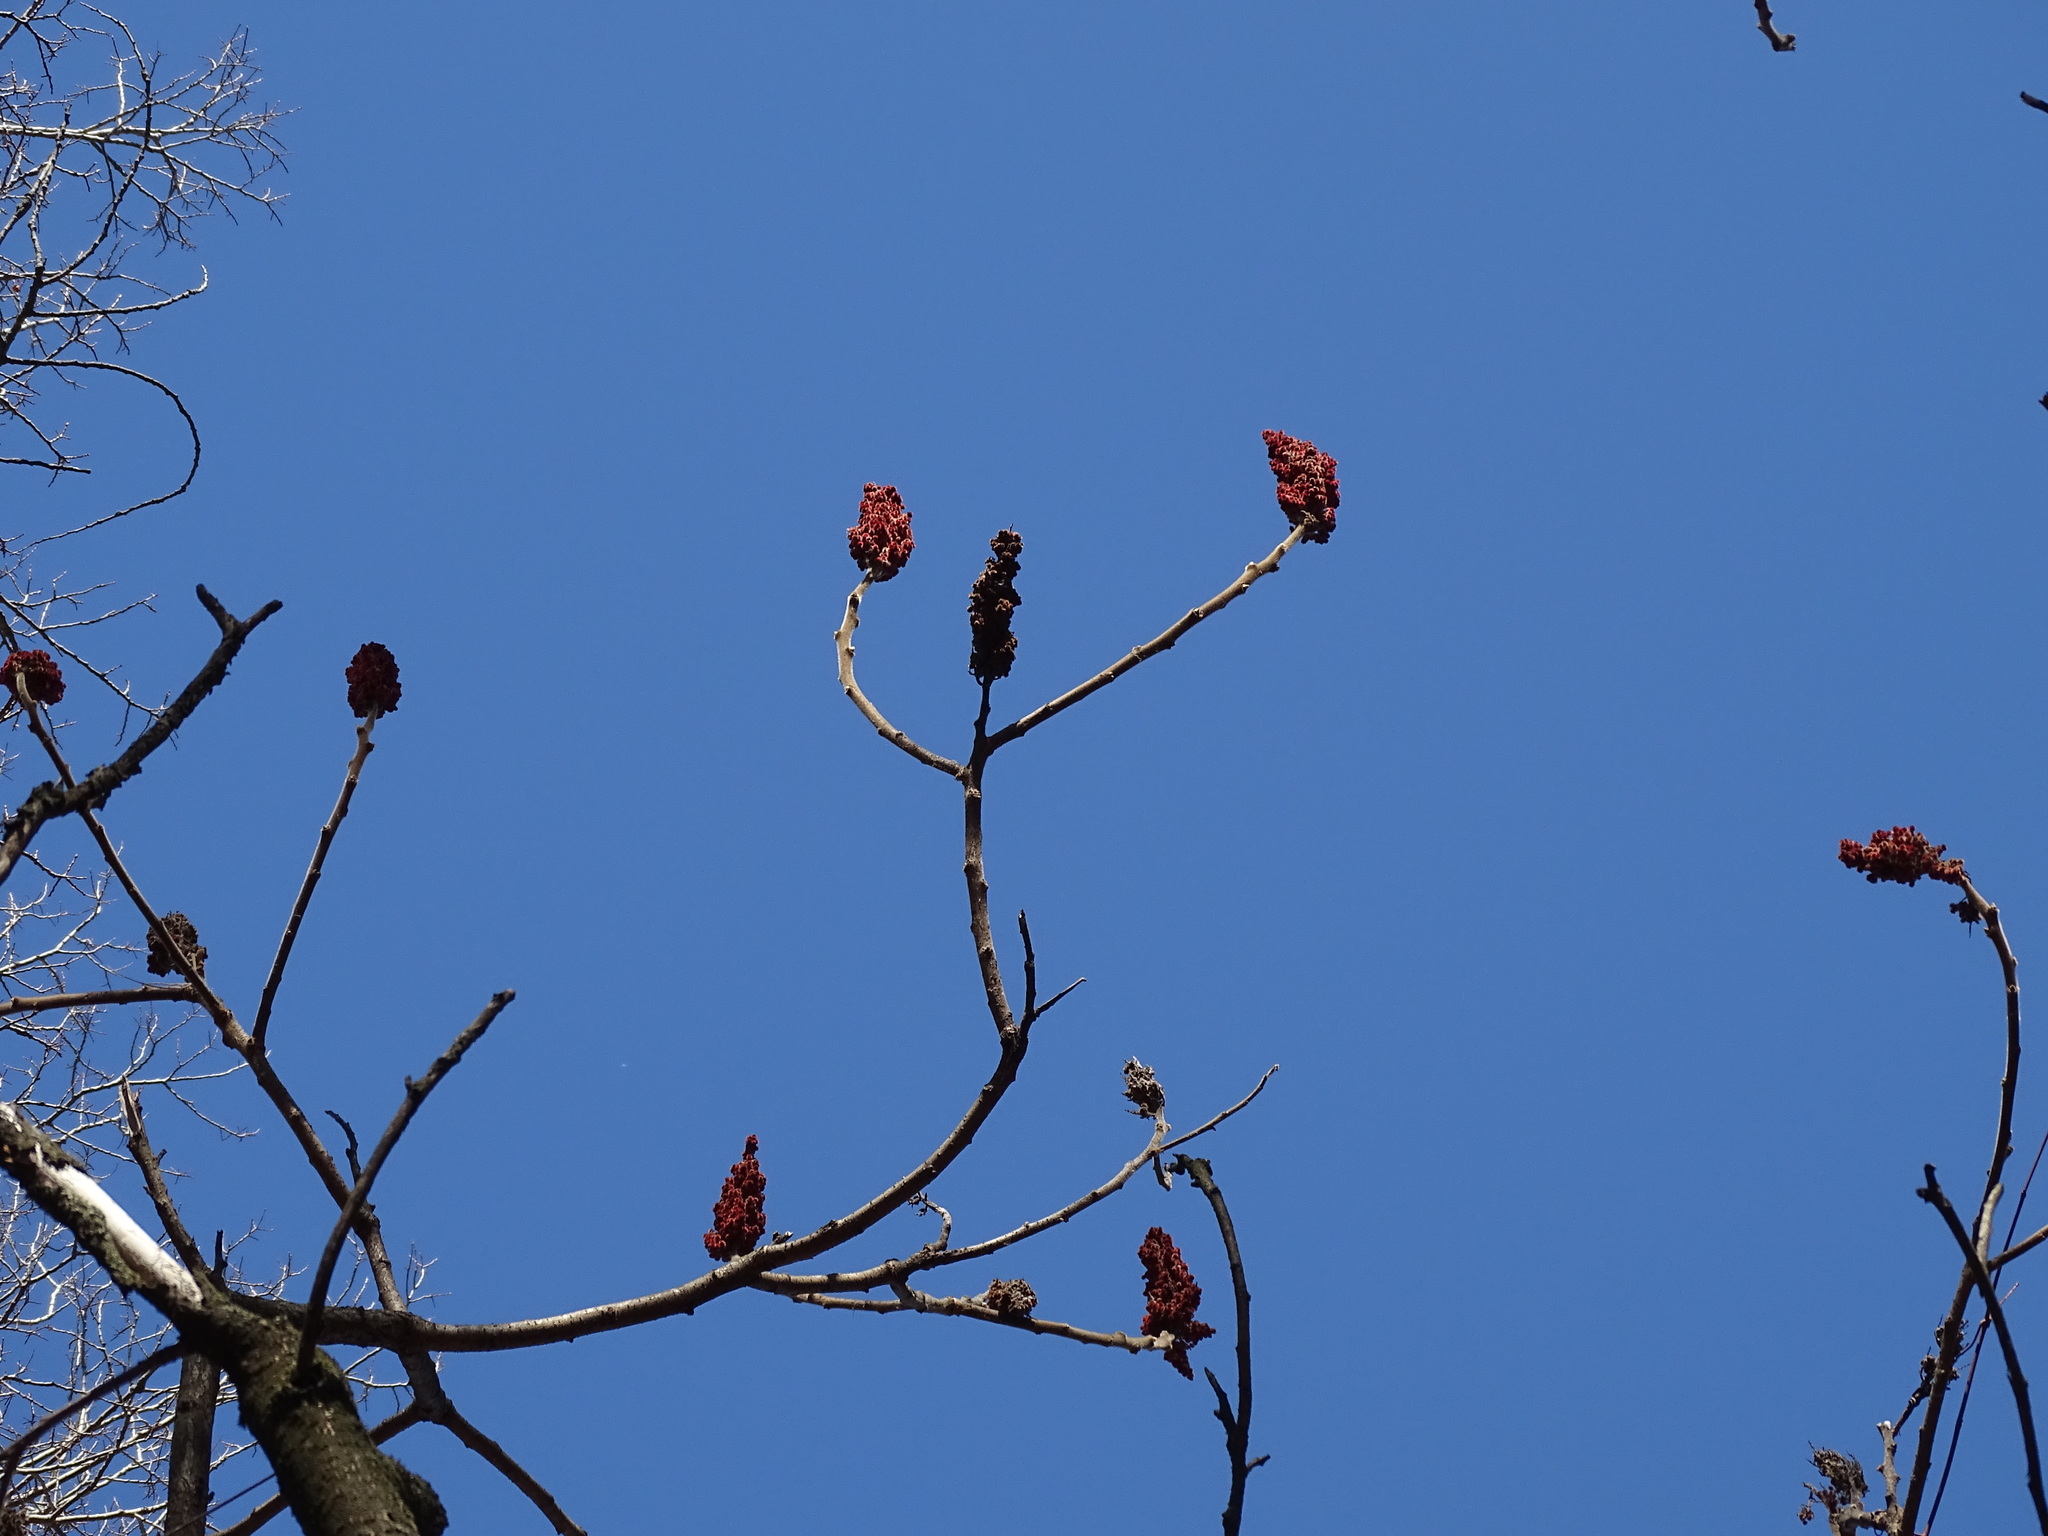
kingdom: Plantae
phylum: Tracheophyta
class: Magnoliopsida
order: Sapindales
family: Anacardiaceae
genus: Rhus
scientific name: Rhus typhina
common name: Staghorn sumac
